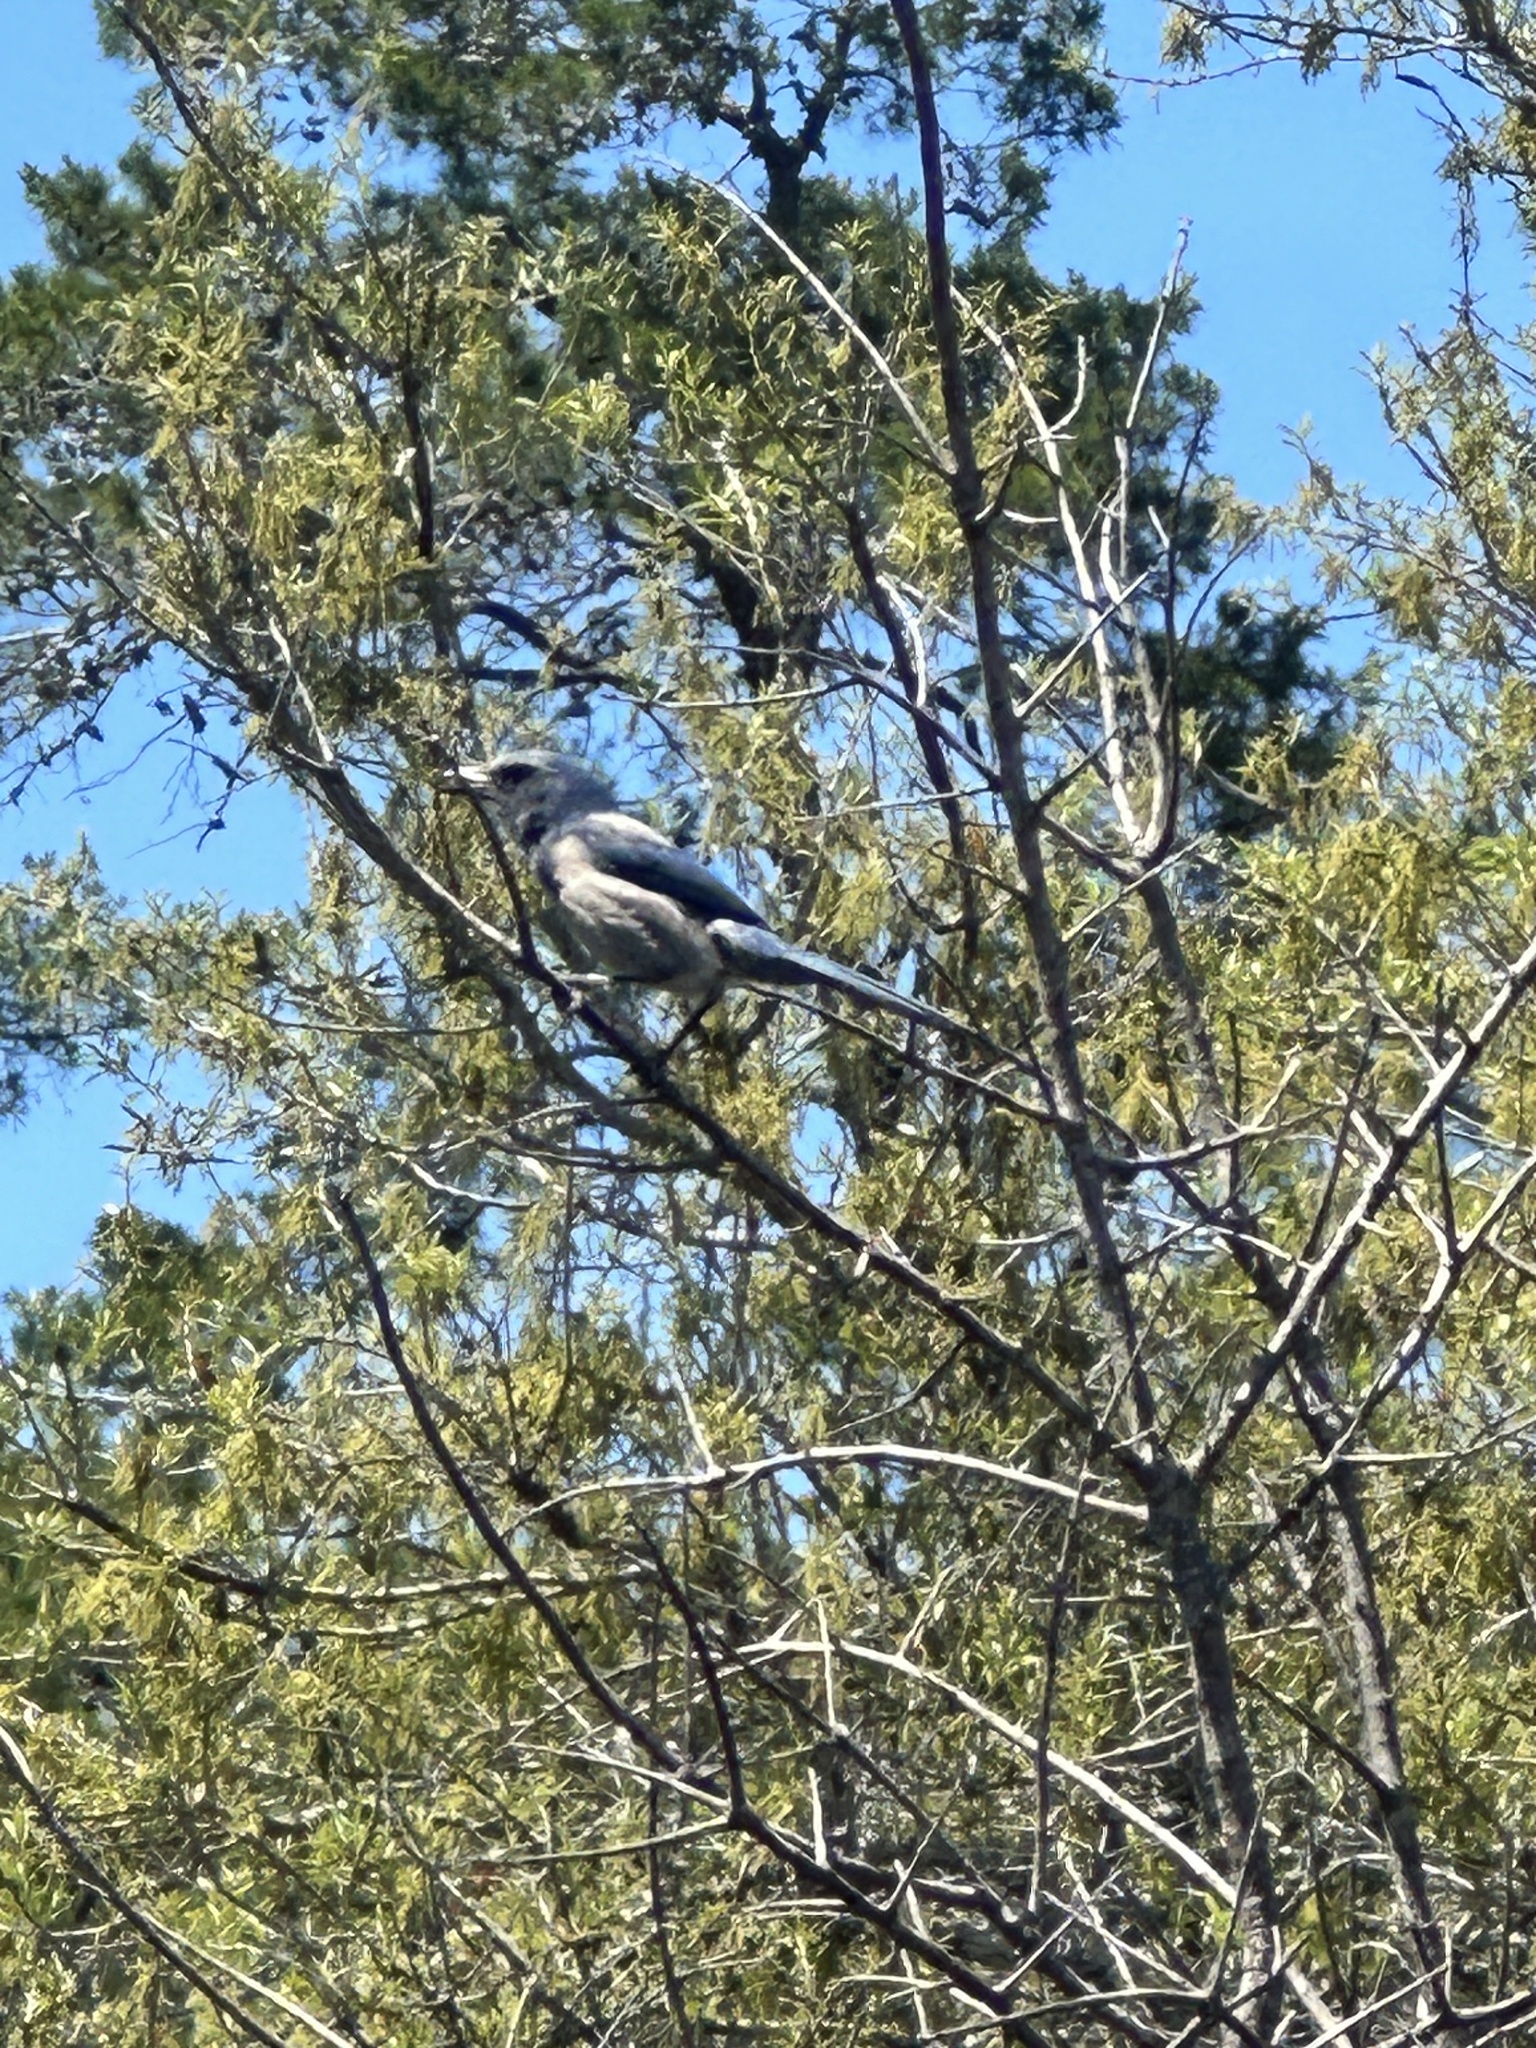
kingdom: Animalia
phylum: Chordata
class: Aves
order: Passeriformes
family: Corvidae
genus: Aphelocoma
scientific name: Aphelocoma coerulescens
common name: Florida scrub jay
